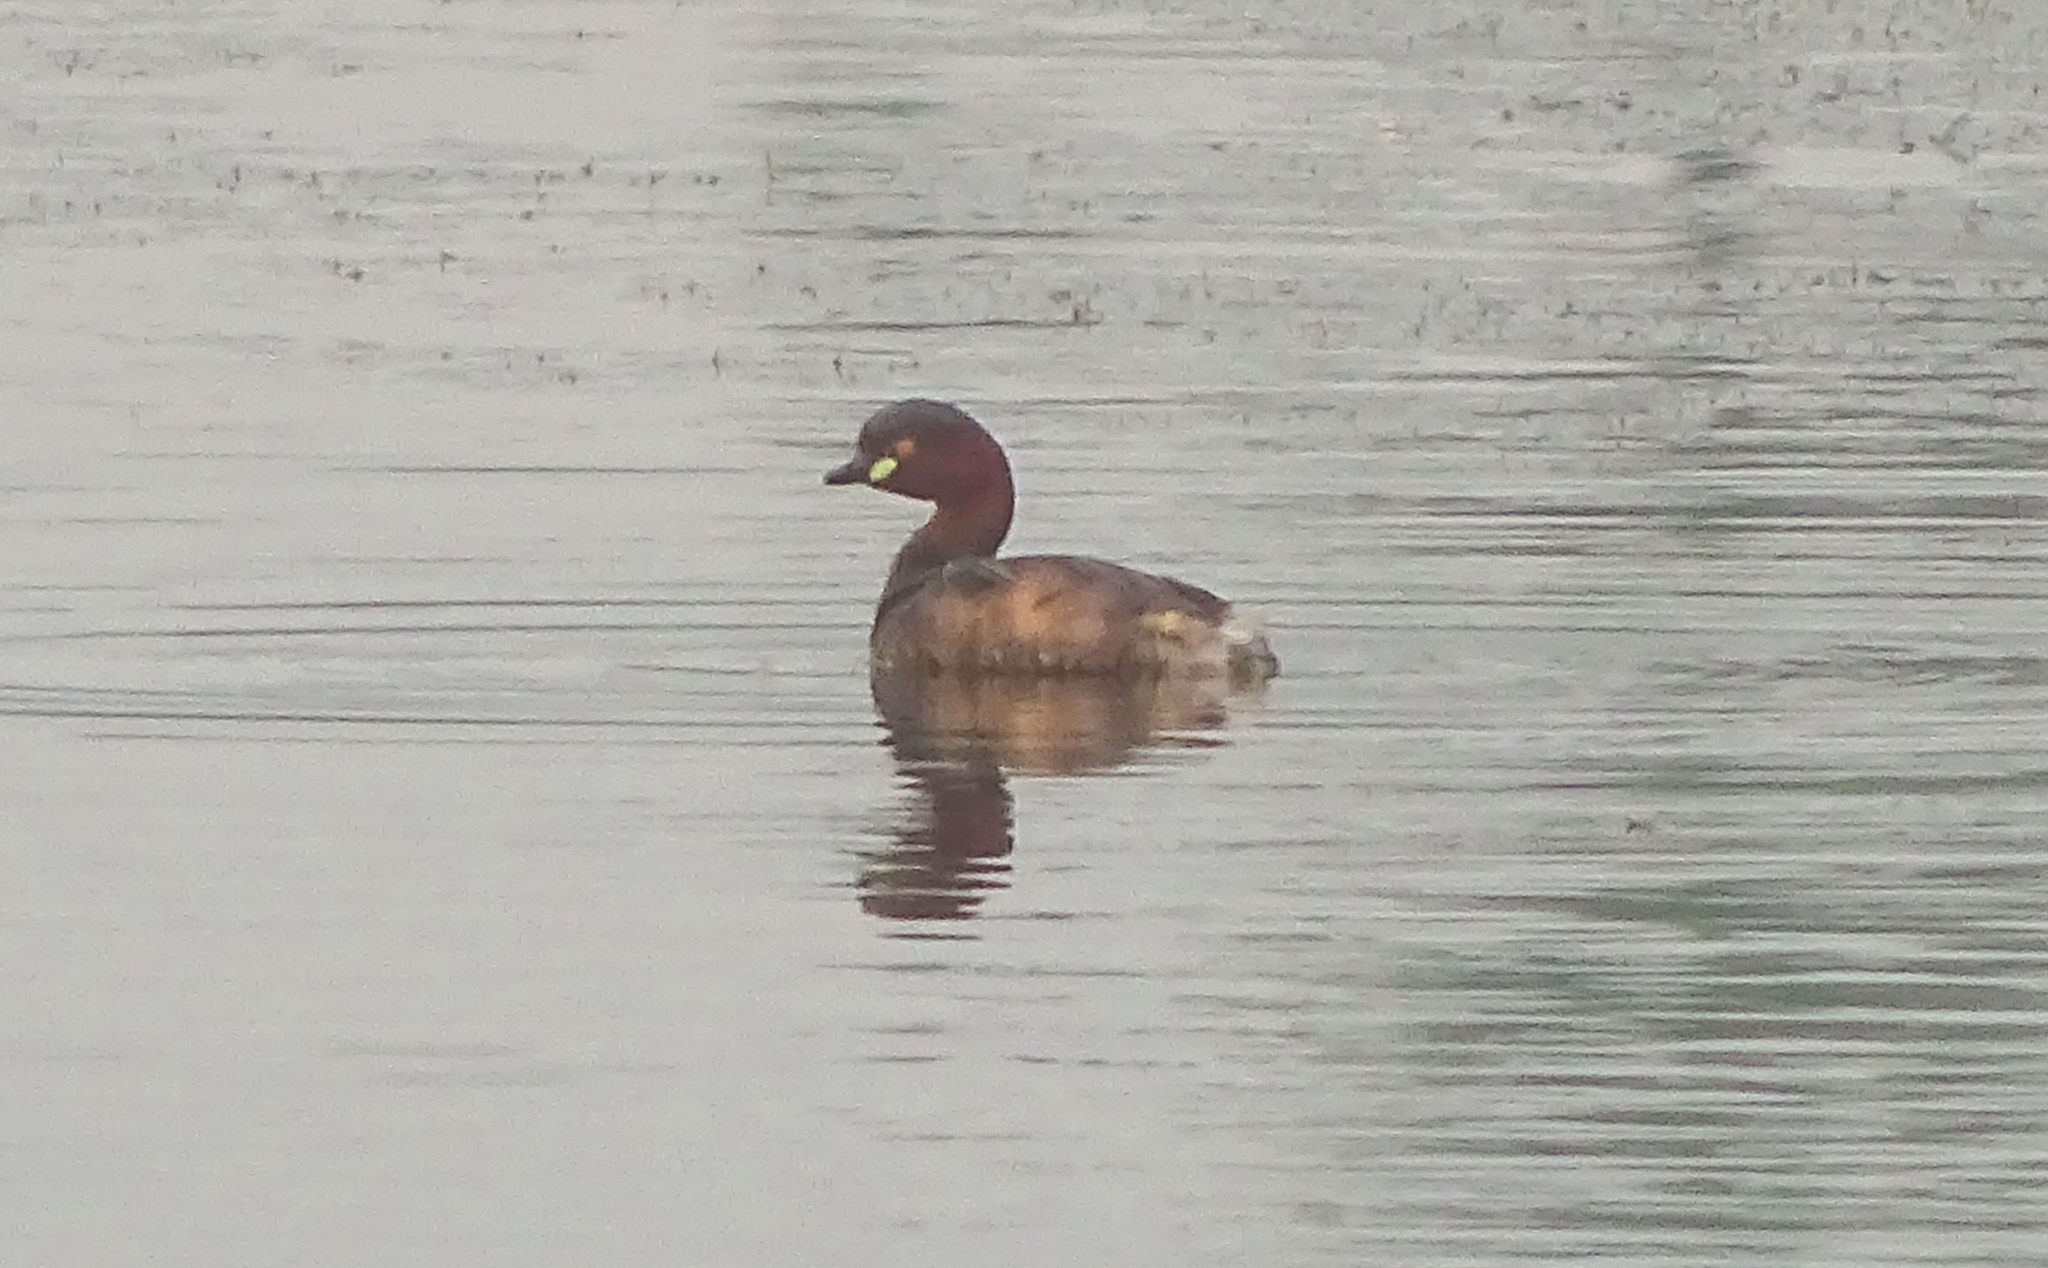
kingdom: Animalia
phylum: Chordata
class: Aves
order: Podicipediformes
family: Podicipedidae
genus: Tachybaptus
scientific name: Tachybaptus ruficollis
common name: Little grebe
